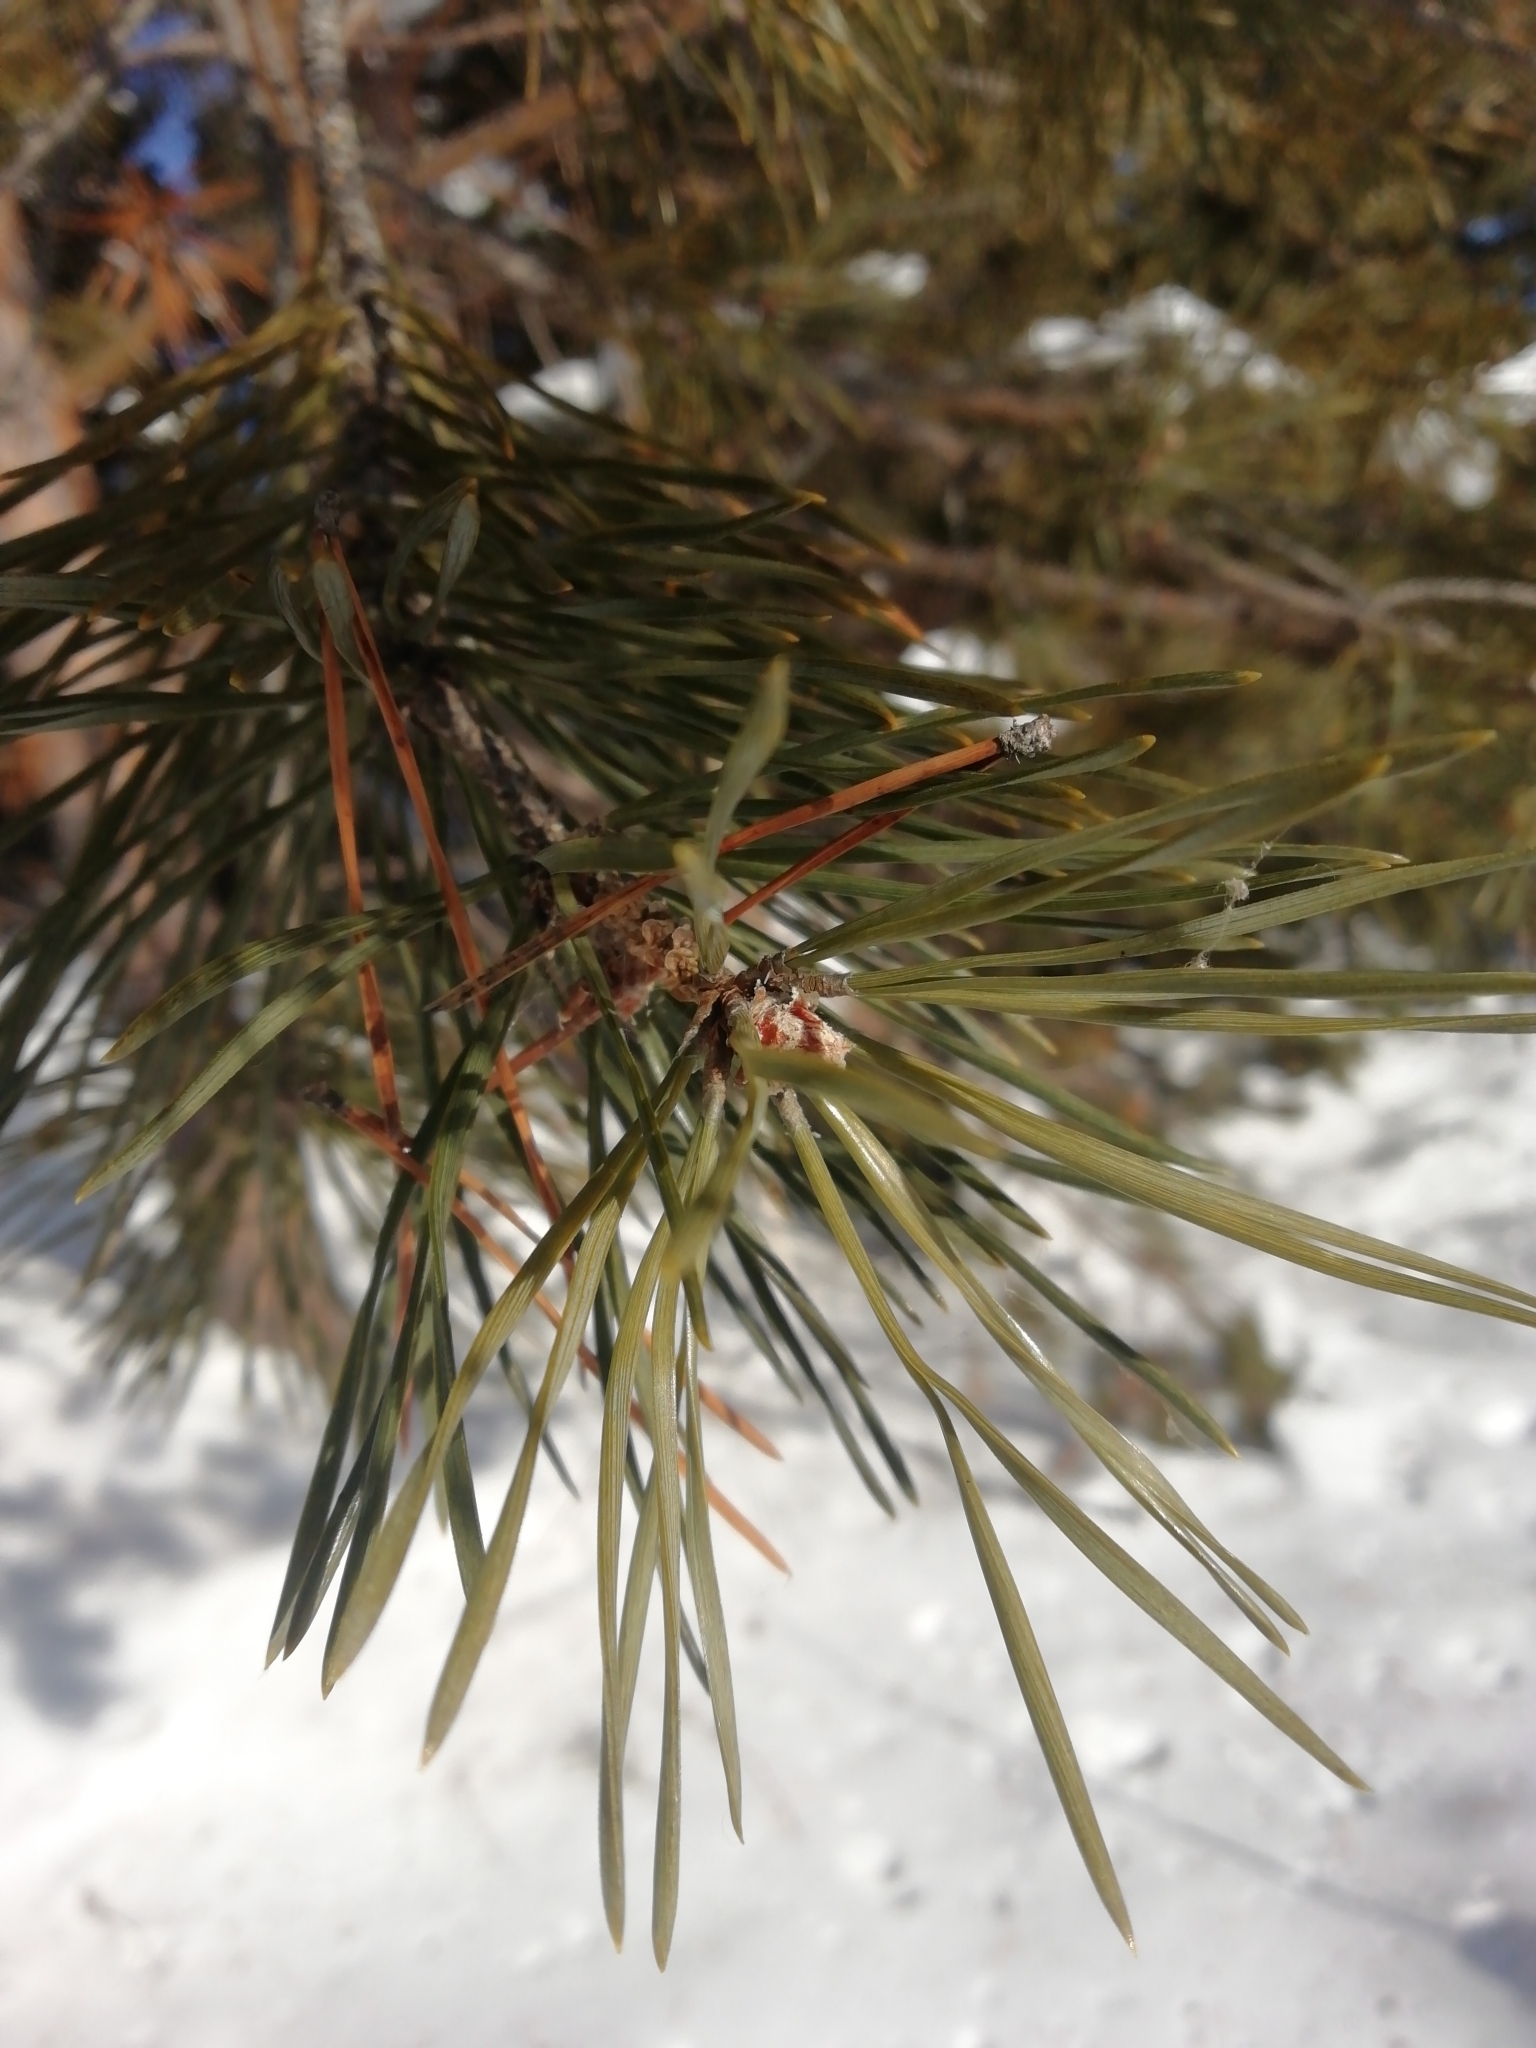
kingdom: Plantae
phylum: Tracheophyta
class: Pinopsida
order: Pinales
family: Pinaceae
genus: Pinus
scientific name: Pinus sylvestris
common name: Scots pine
